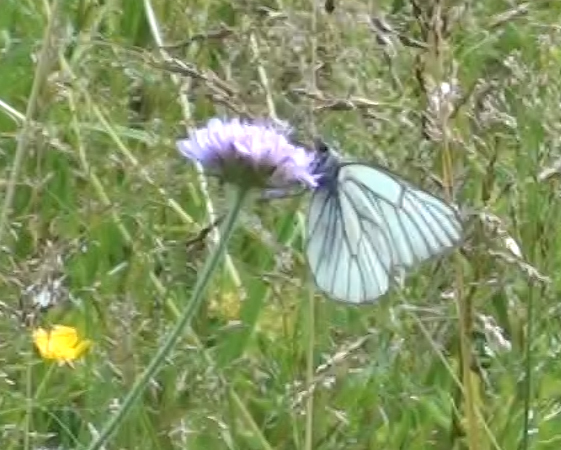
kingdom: Animalia
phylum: Arthropoda
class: Insecta
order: Lepidoptera
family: Pieridae
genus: Aporia
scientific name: Aporia crataegi
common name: Black-veined white
